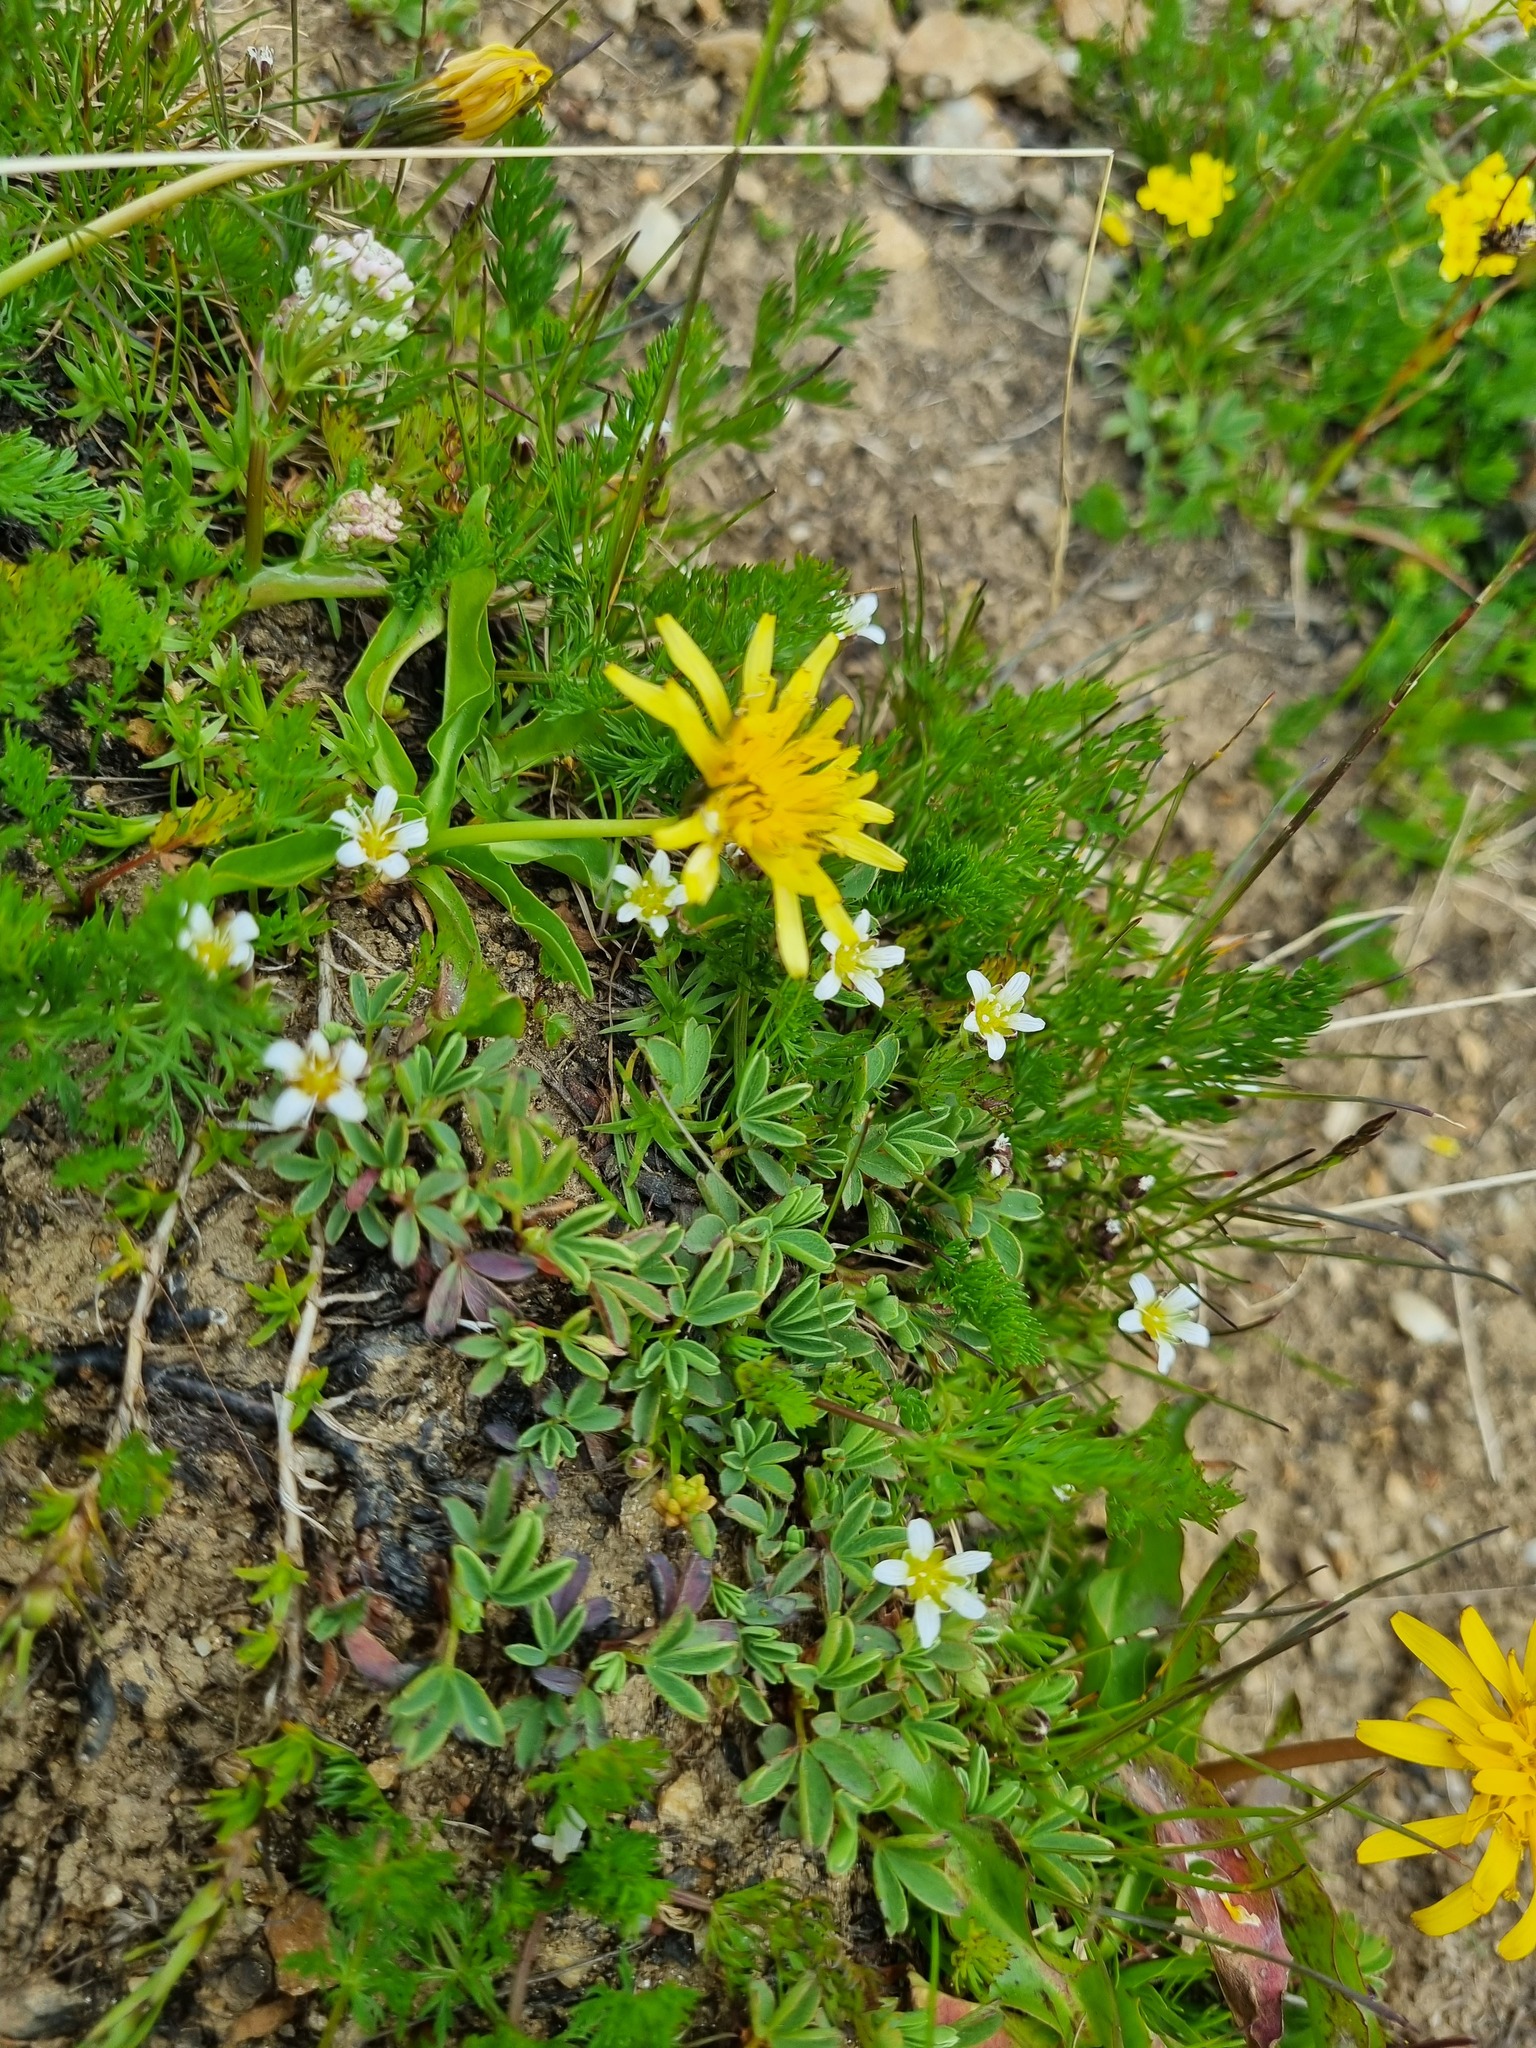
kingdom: Plantae
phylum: Tracheophyta
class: Magnoliopsida
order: Rosales
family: Rosaceae
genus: Sibbaldia
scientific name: Sibbaldia parviflora
